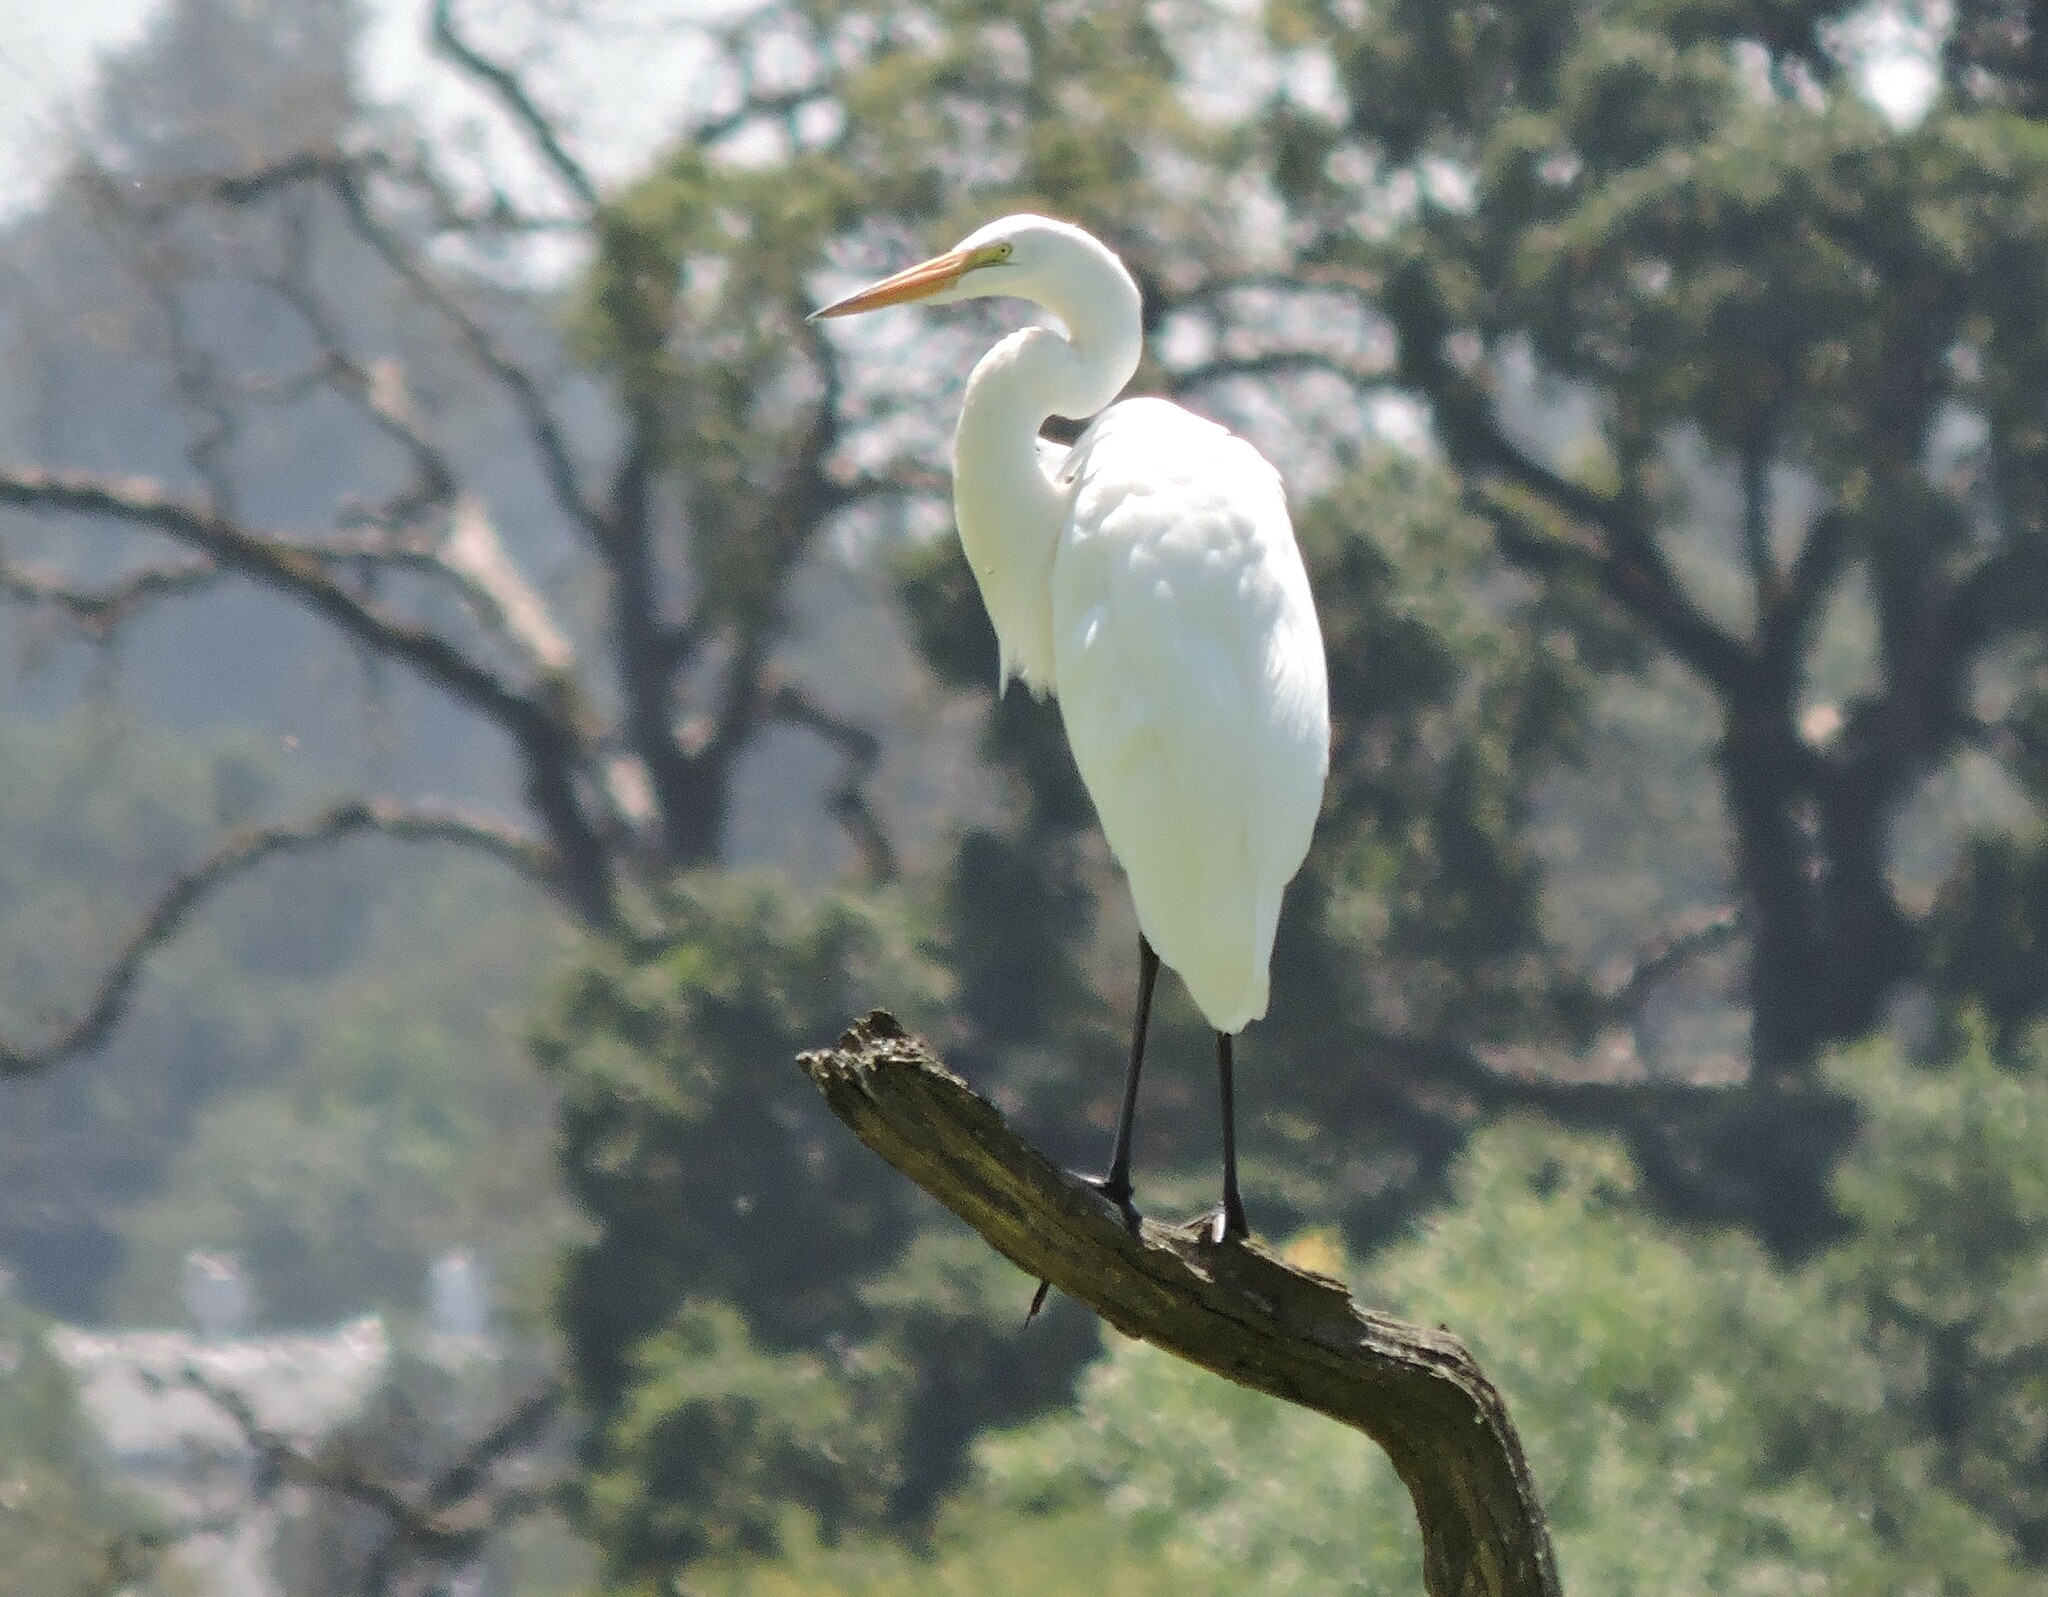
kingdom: Animalia
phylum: Chordata
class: Aves
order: Pelecaniformes
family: Ardeidae
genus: Ardea
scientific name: Ardea alba
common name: Great egret
